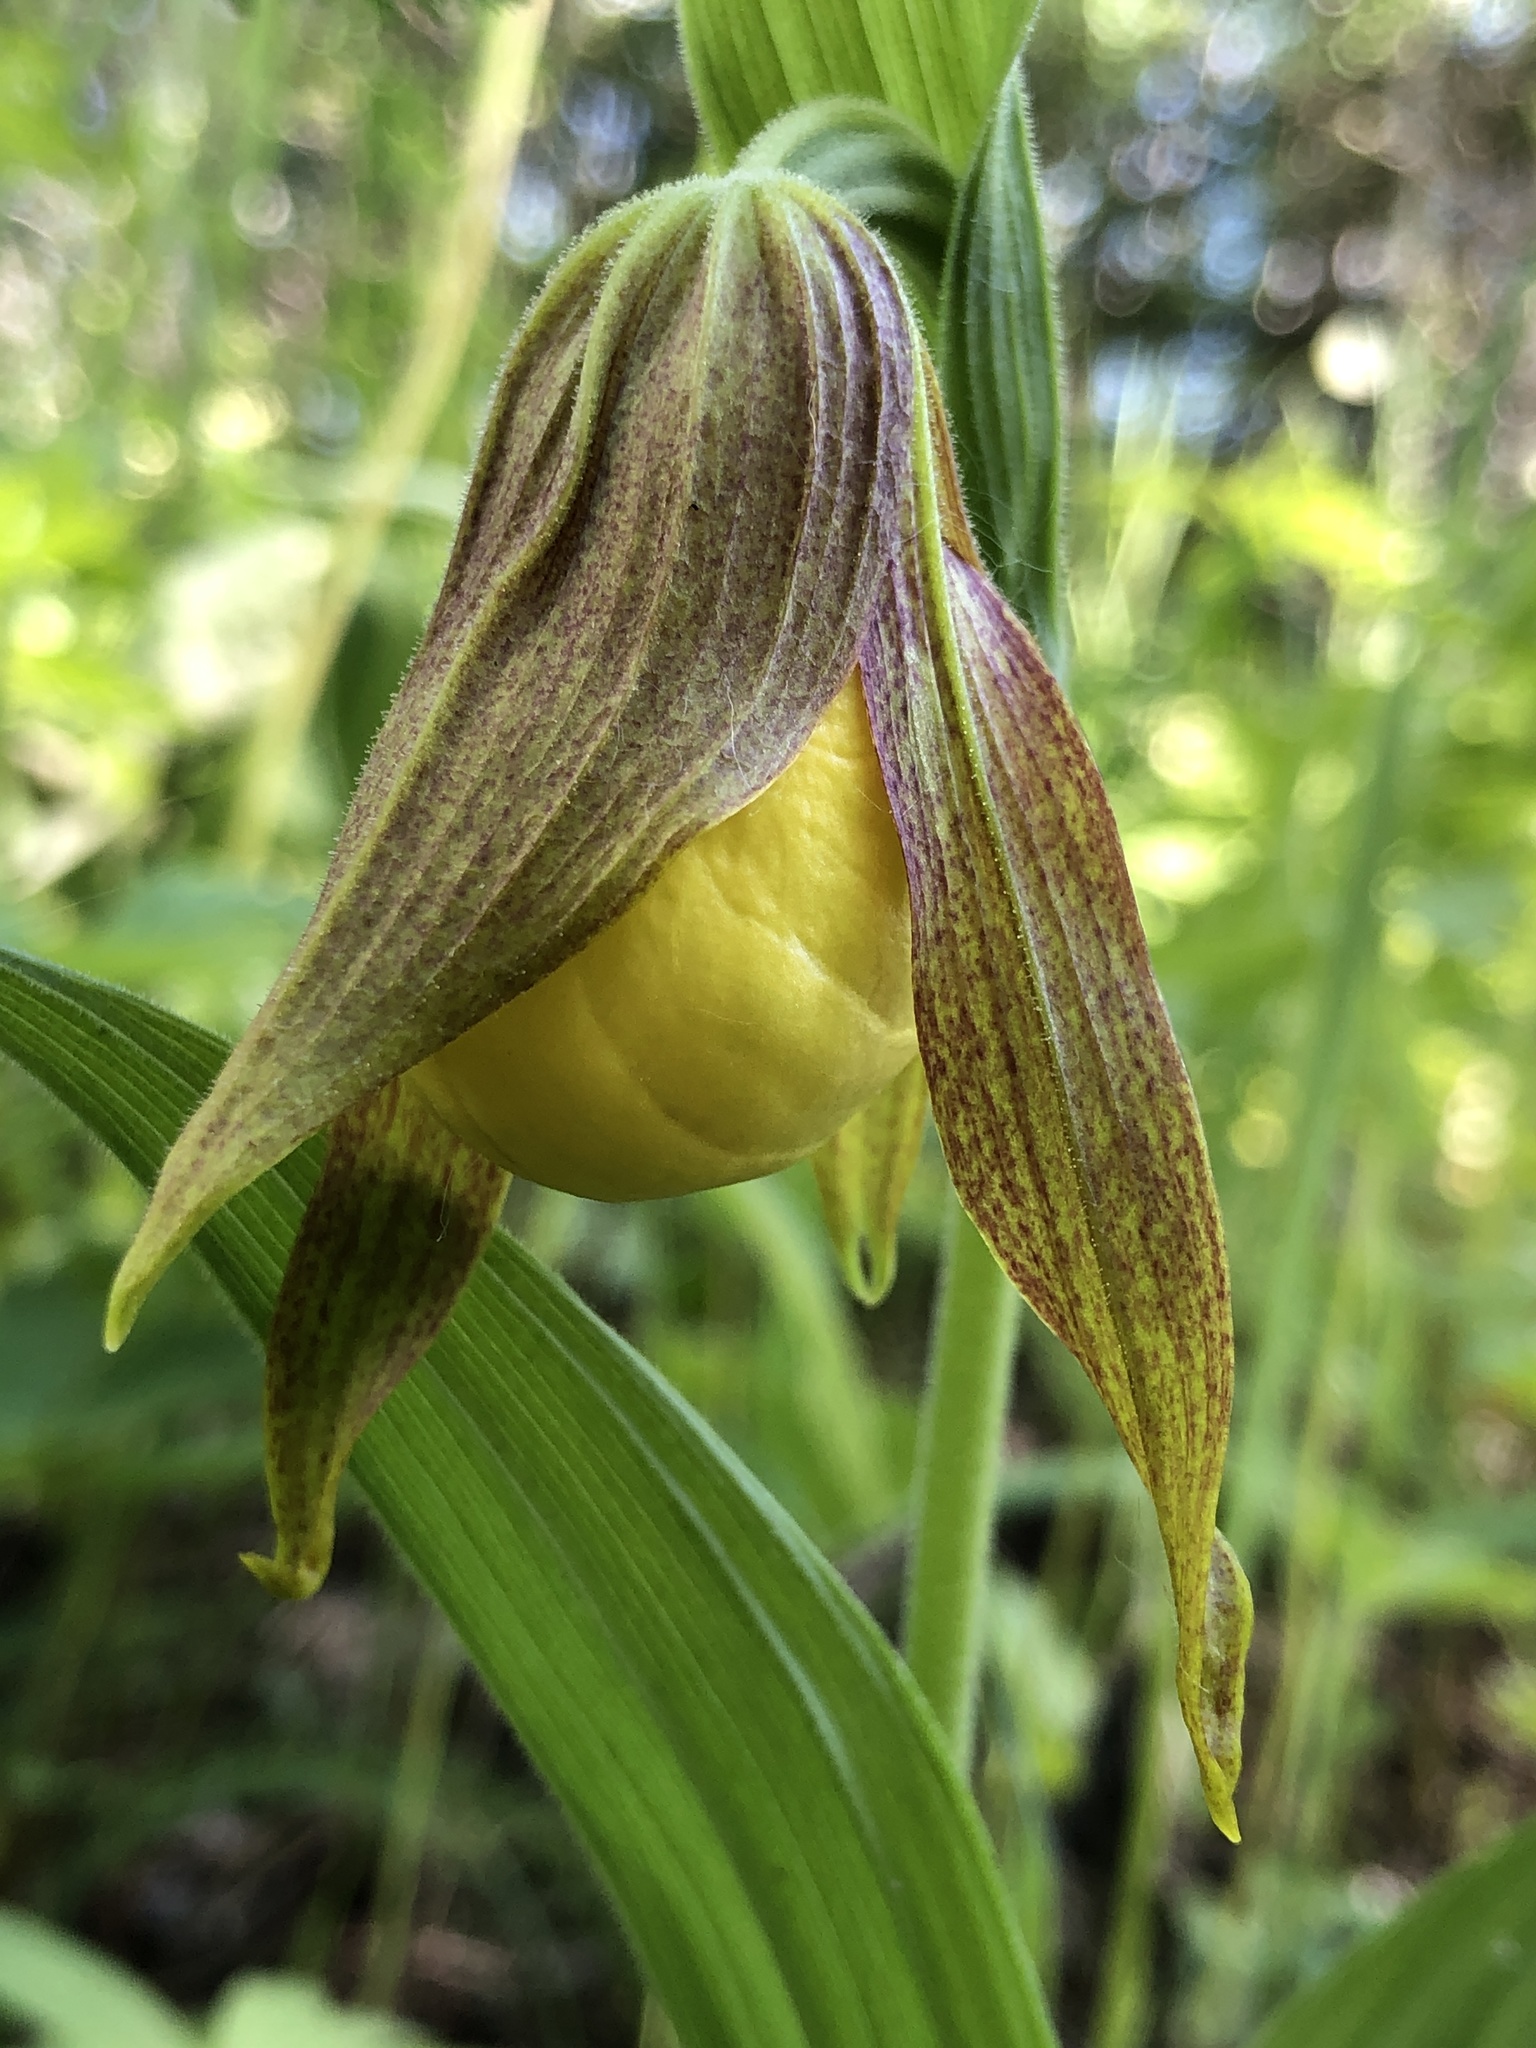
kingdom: Plantae
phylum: Tracheophyta
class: Liliopsida
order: Asparagales
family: Orchidaceae
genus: Cypripedium
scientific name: Cypripedium parviflorum
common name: American yellow lady's-slipper
